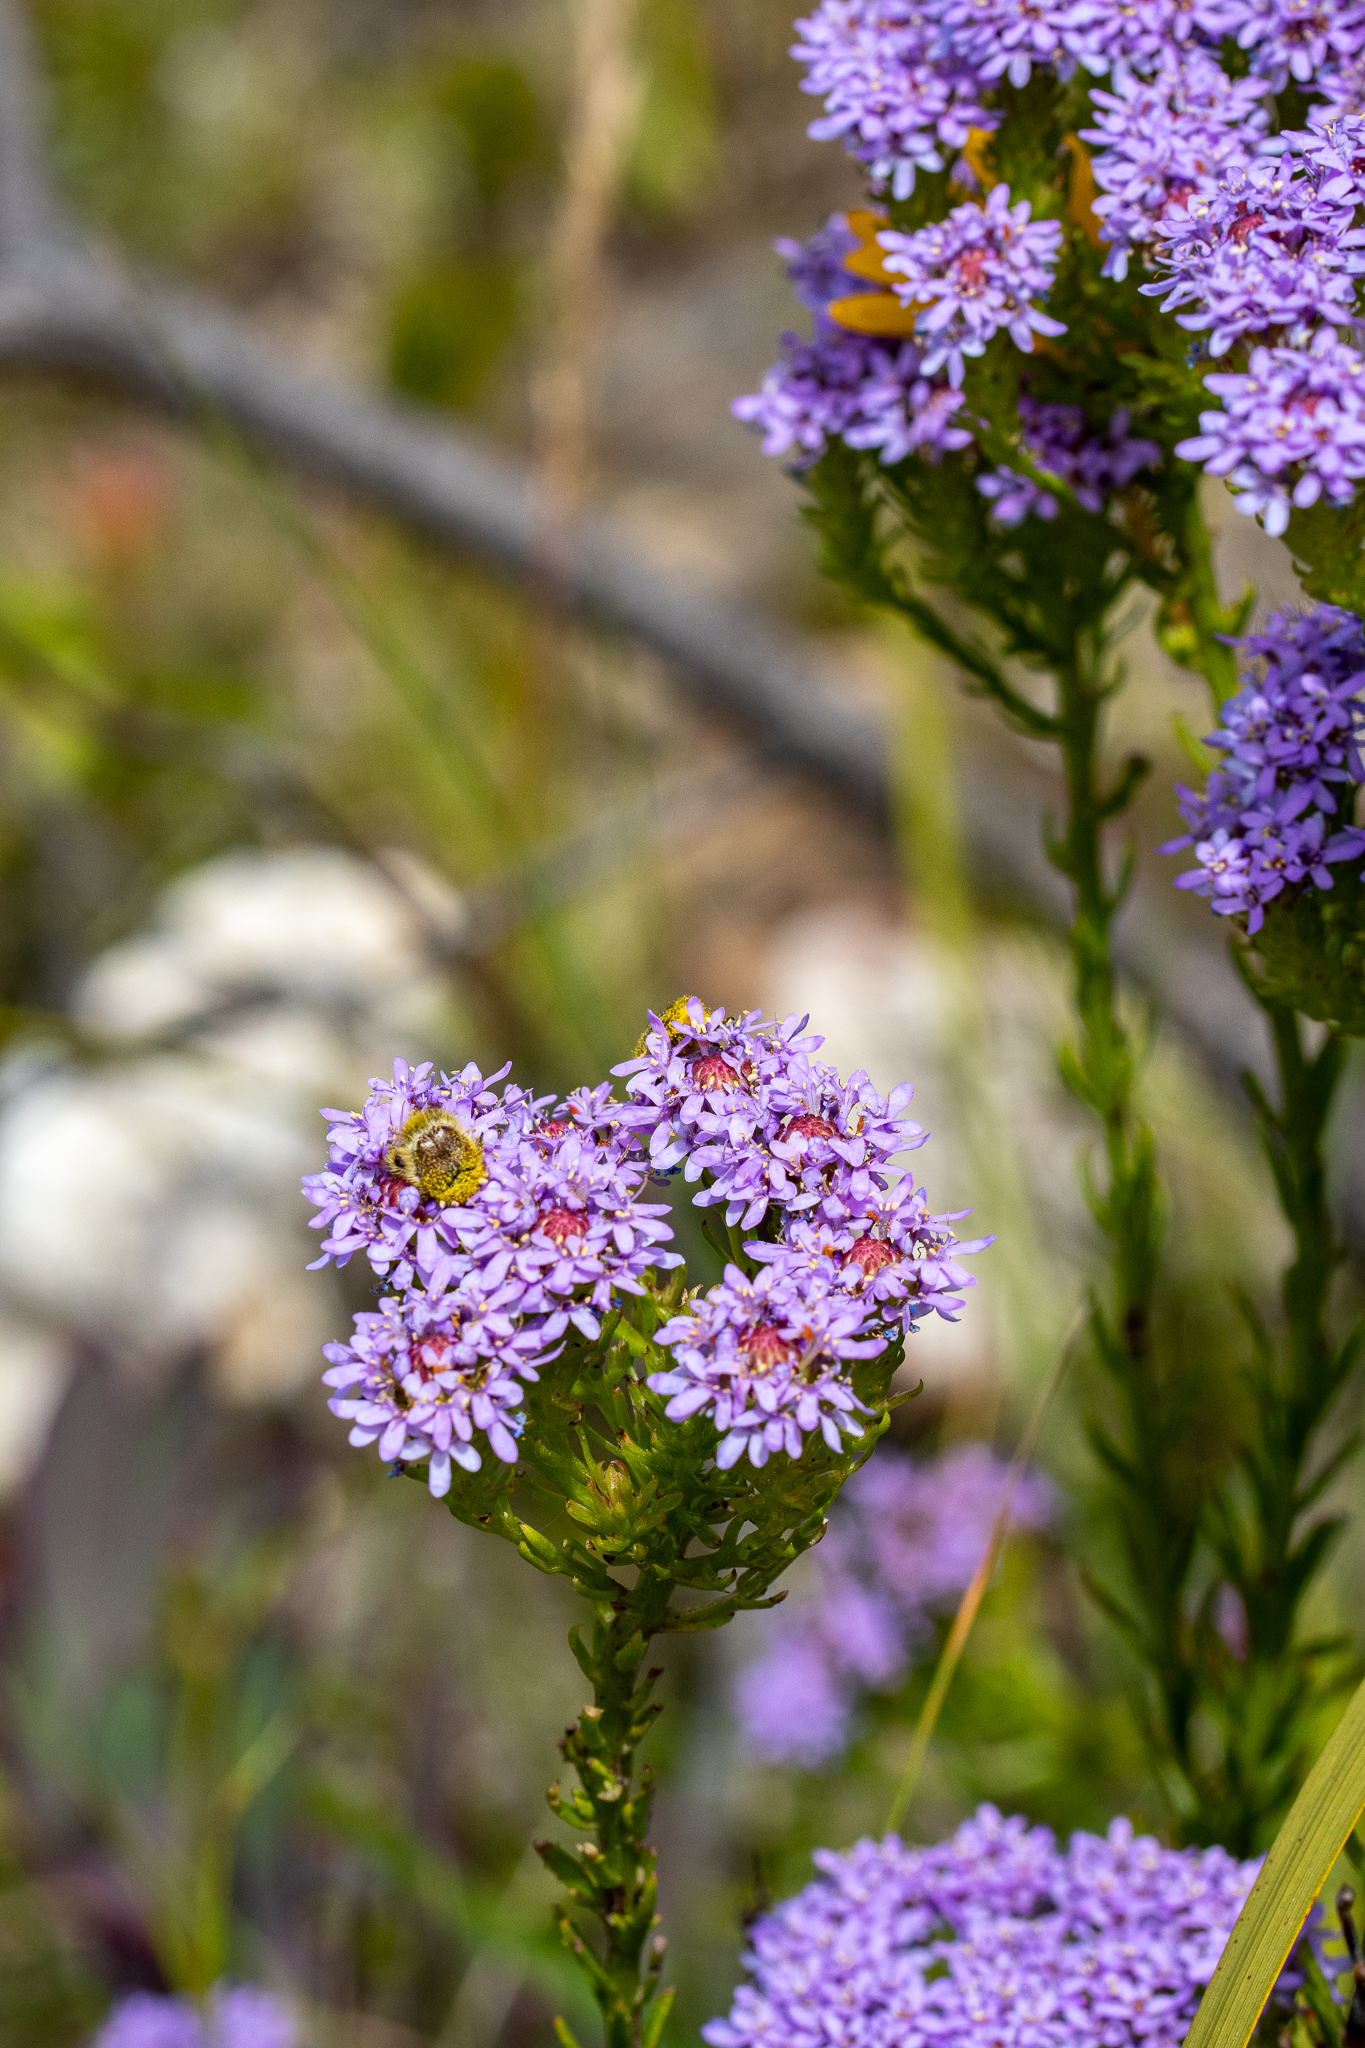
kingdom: Plantae
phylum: Tracheophyta
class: Magnoliopsida
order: Lamiales
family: Scrophulariaceae
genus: Pseudoselago
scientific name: Pseudoselago spuria
